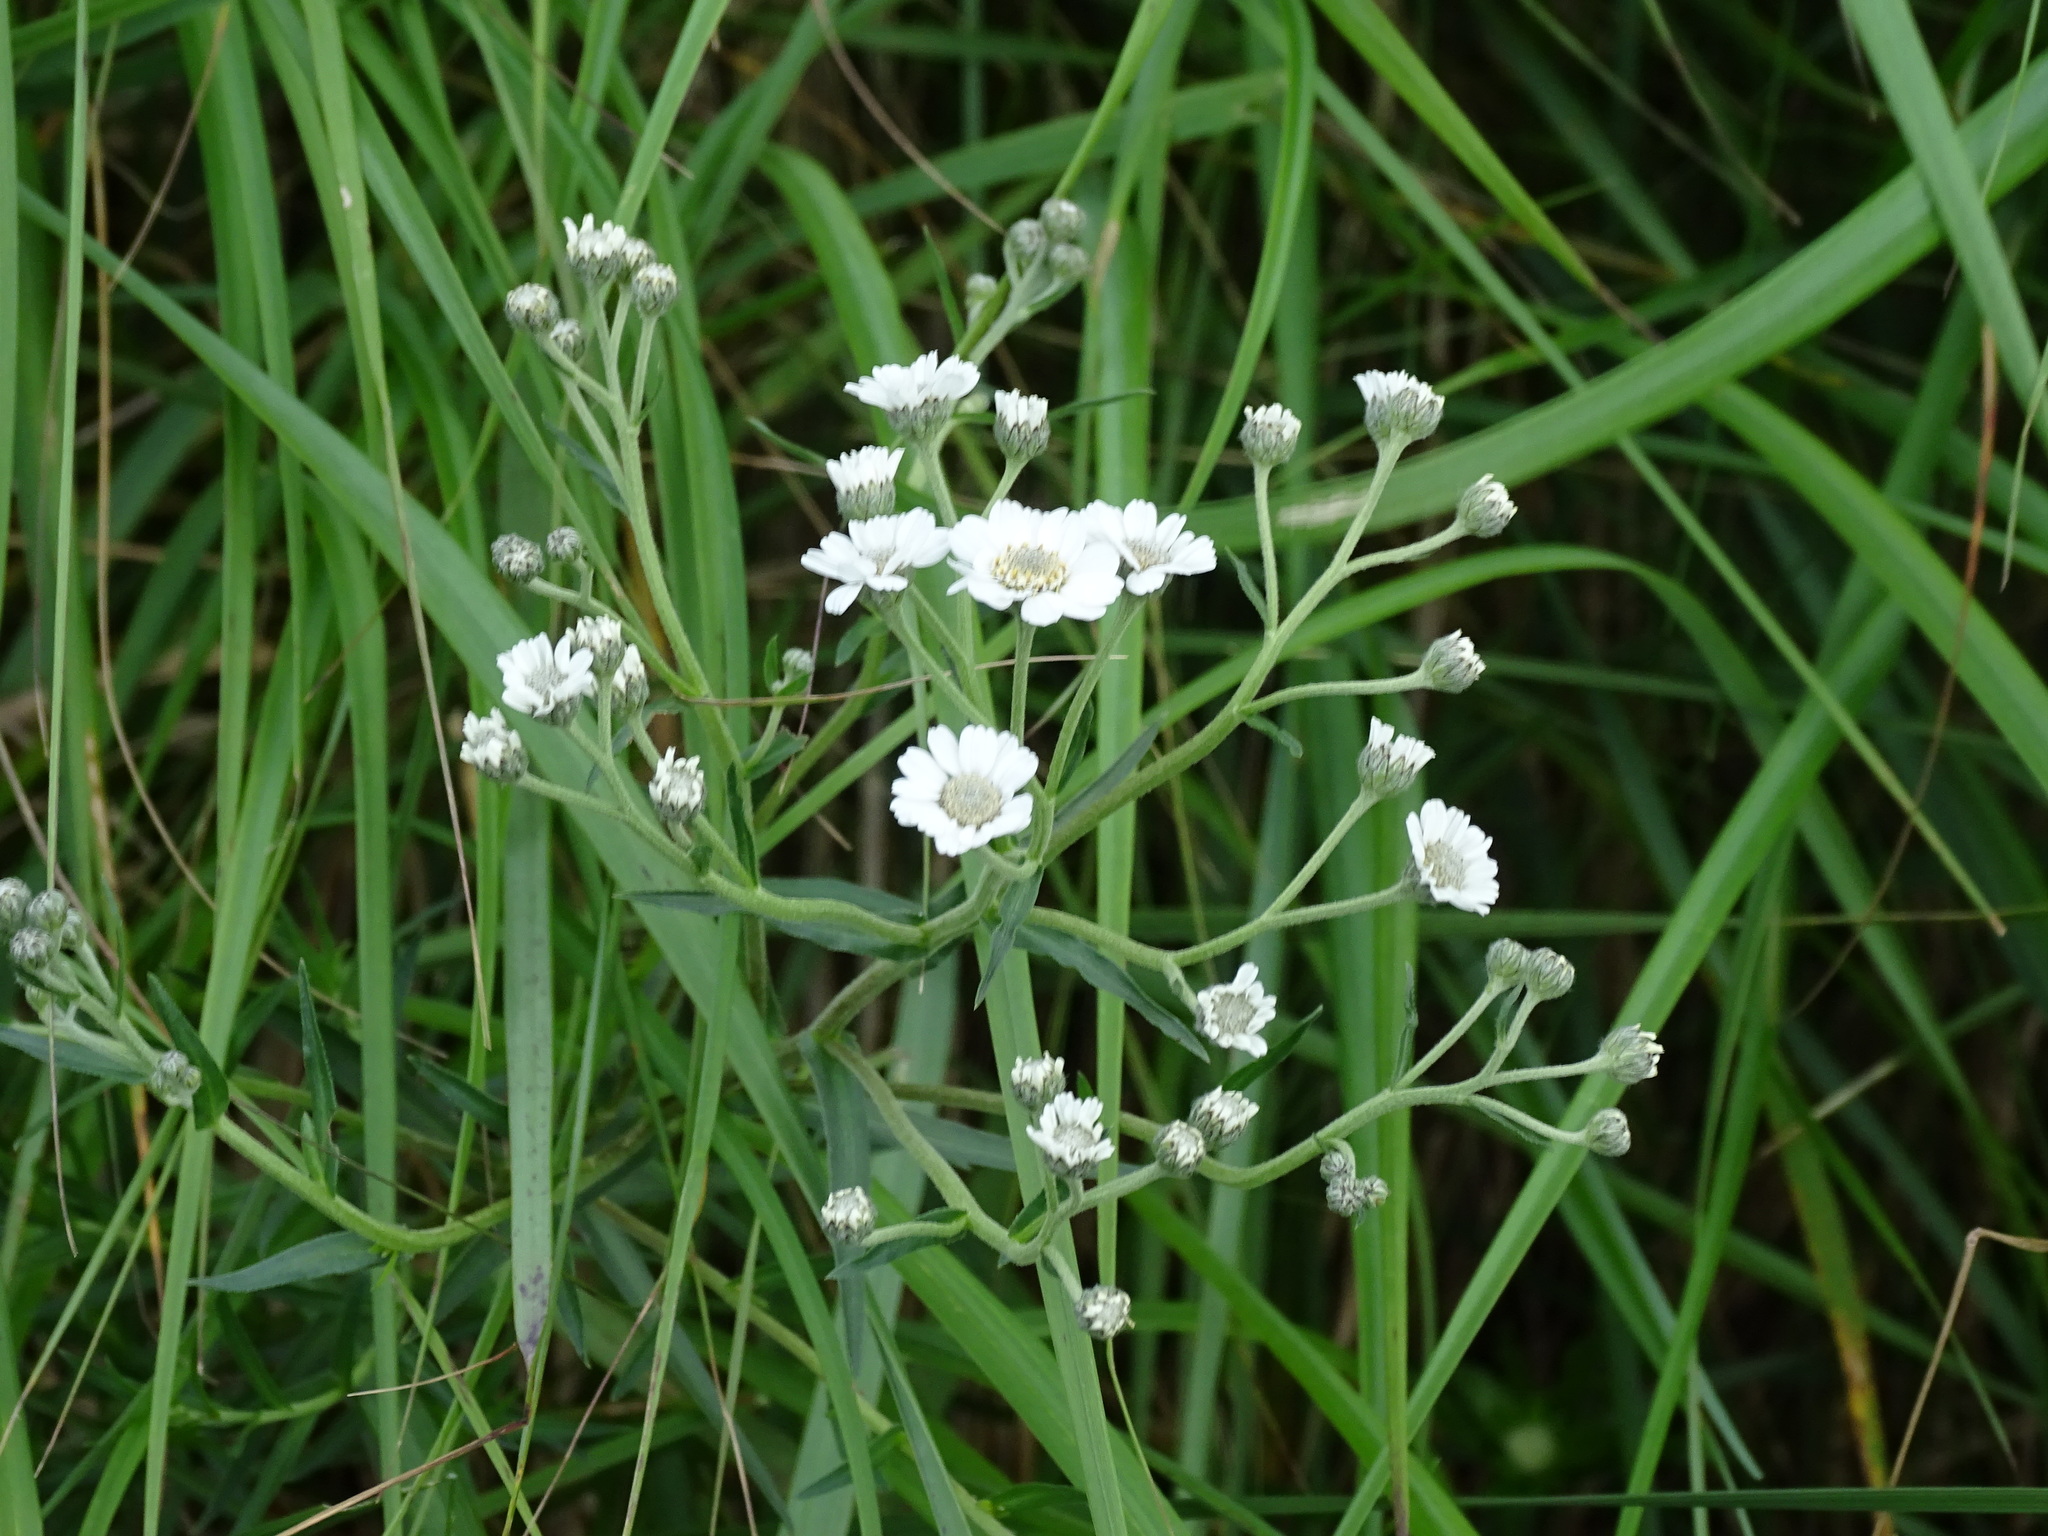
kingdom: Plantae
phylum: Tracheophyta
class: Magnoliopsida
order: Asterales
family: Asteraceae
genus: Achillea
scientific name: Achillea ptarmica
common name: Sneezeweed
